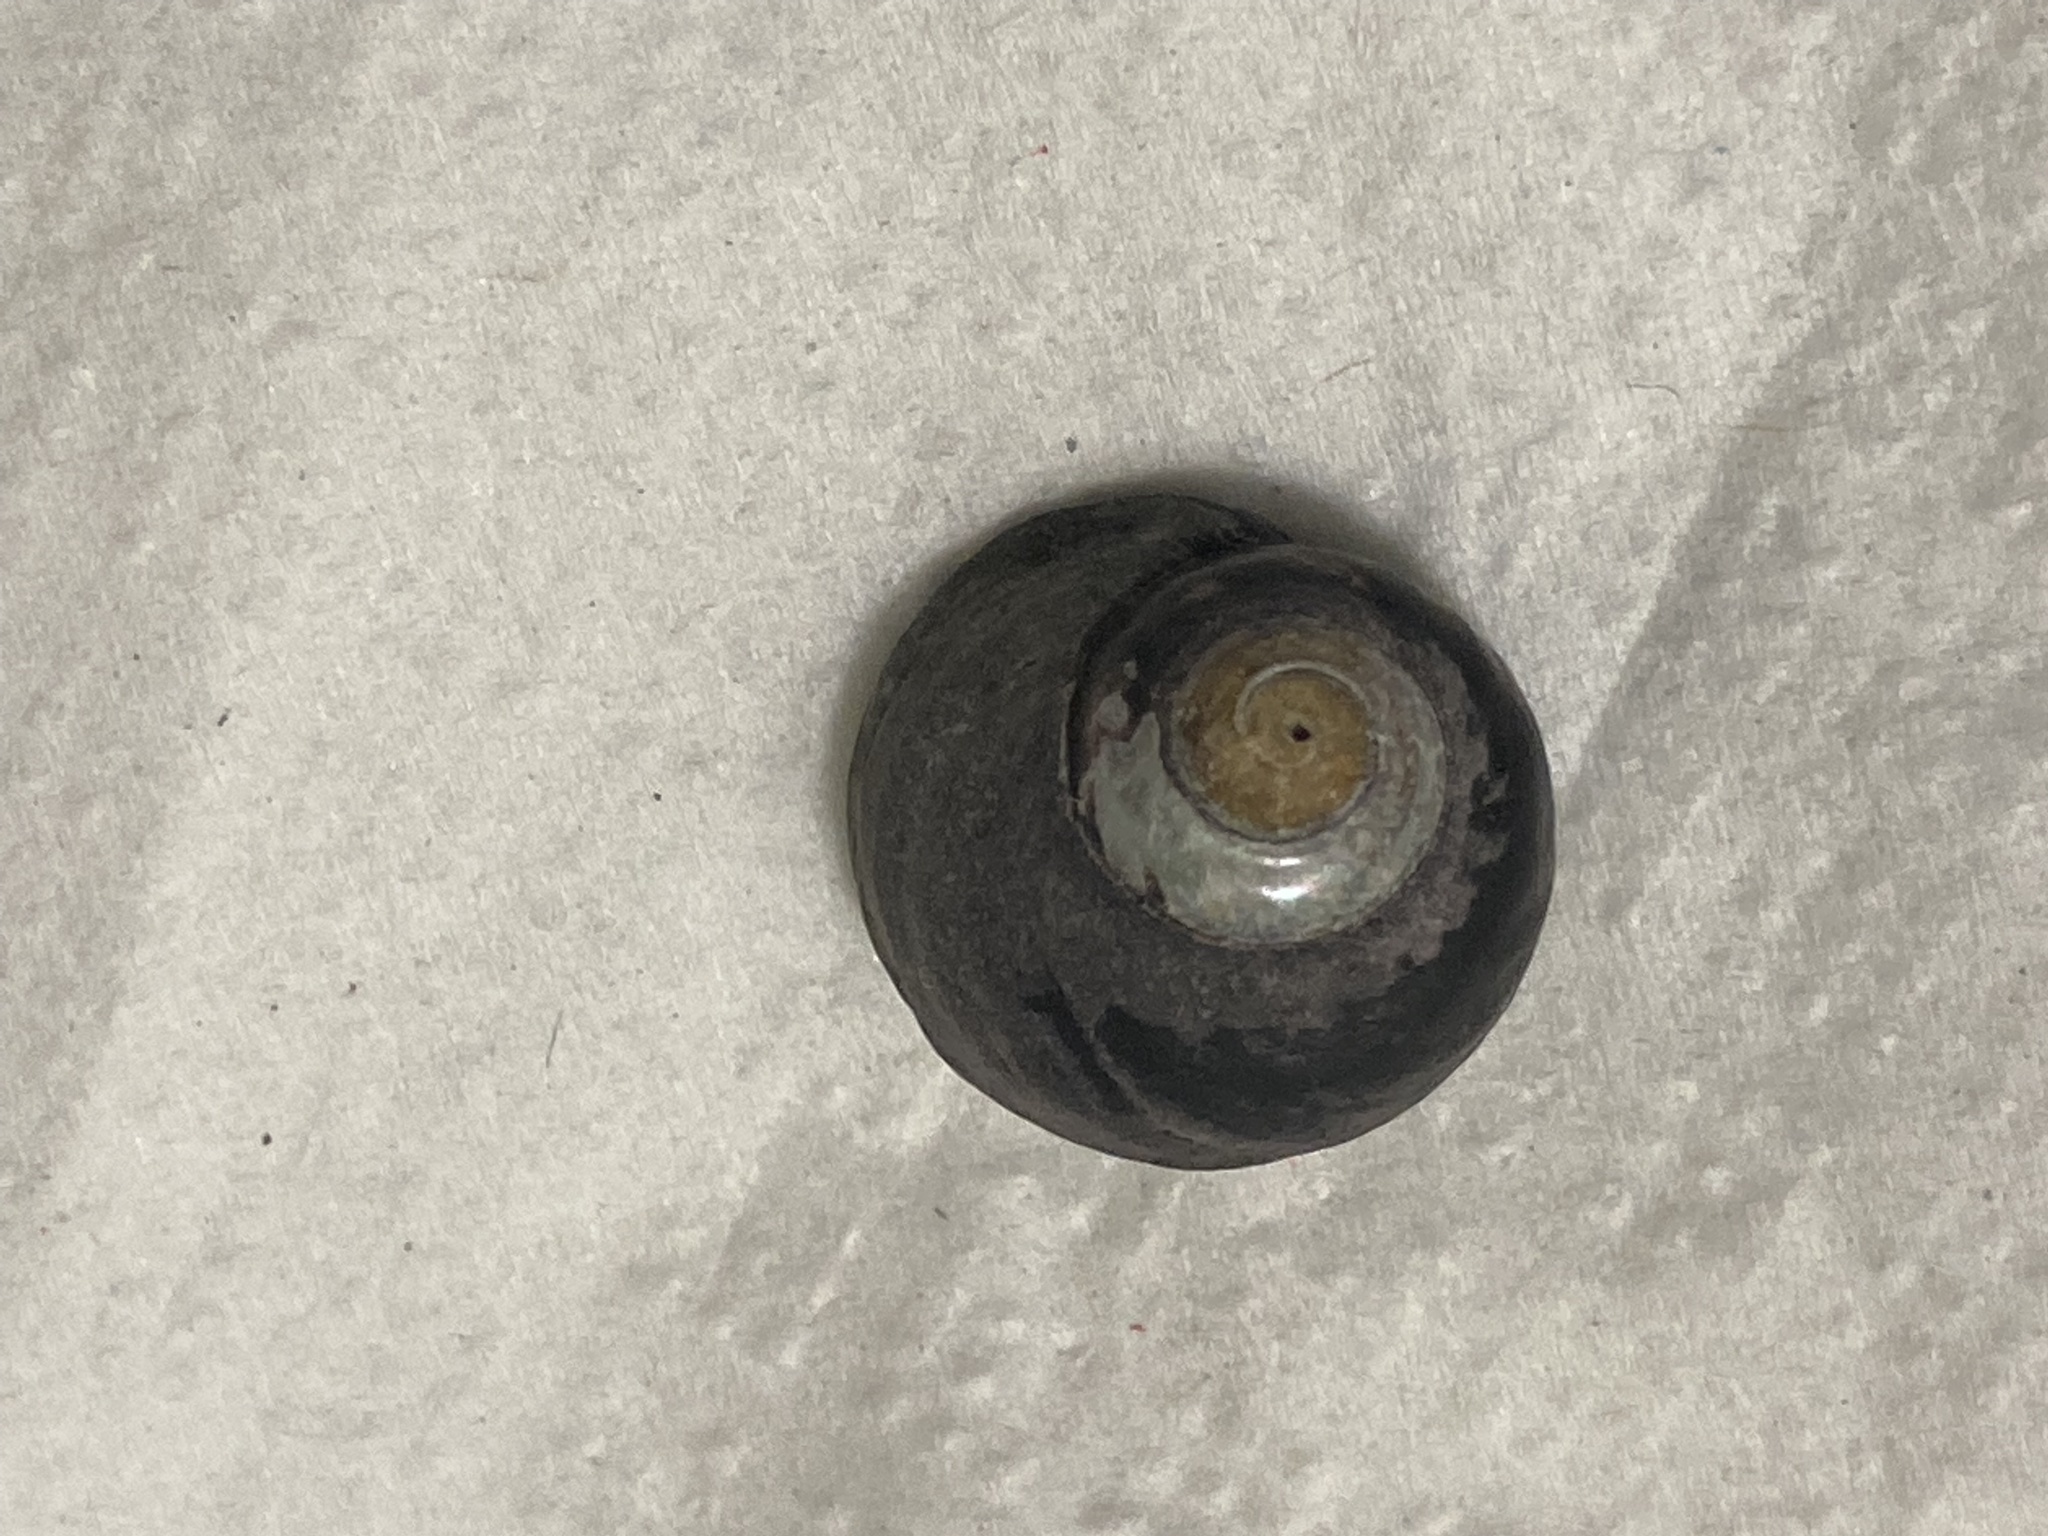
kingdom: Animalia
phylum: Mollusca
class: Gastropoda
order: Trochida
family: Tegulidae
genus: Tegula
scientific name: Tegula funebralis
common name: Black tegula
